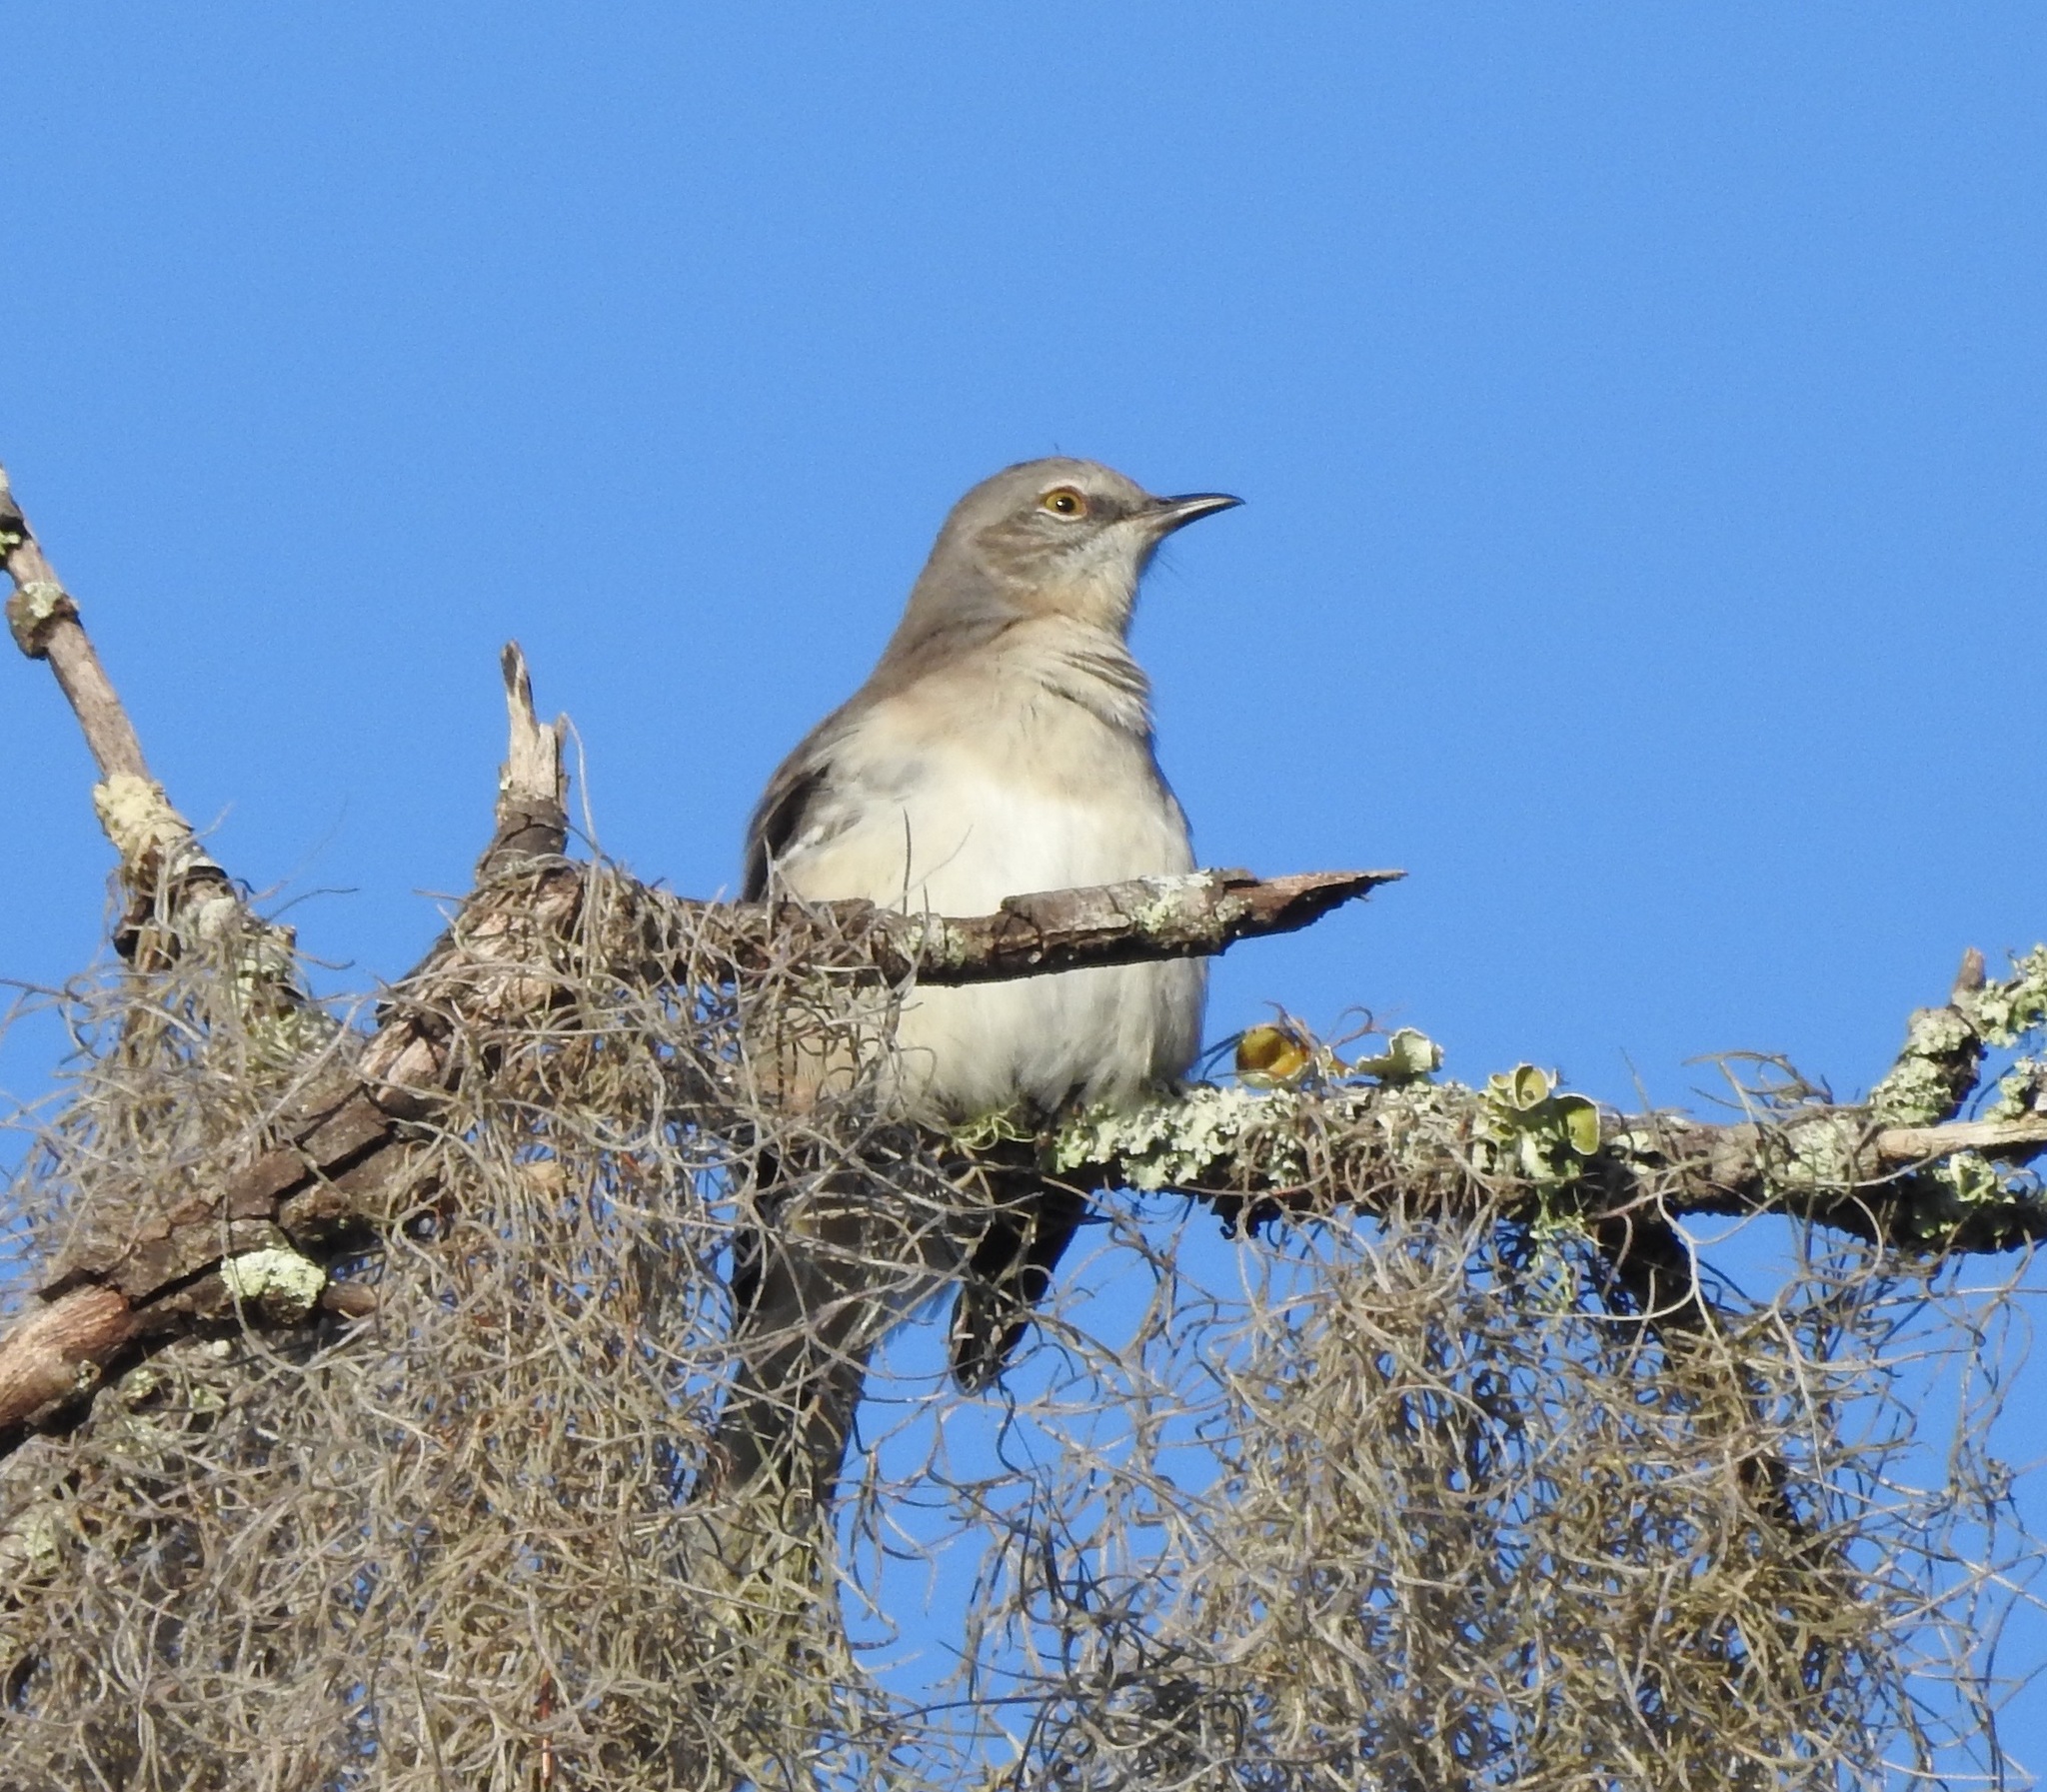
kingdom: Animalia
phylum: Chordata
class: Aves
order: Passeriformes
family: Mimidae
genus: Mimus
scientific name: Mimus polyglottos
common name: Northern mockingbird
